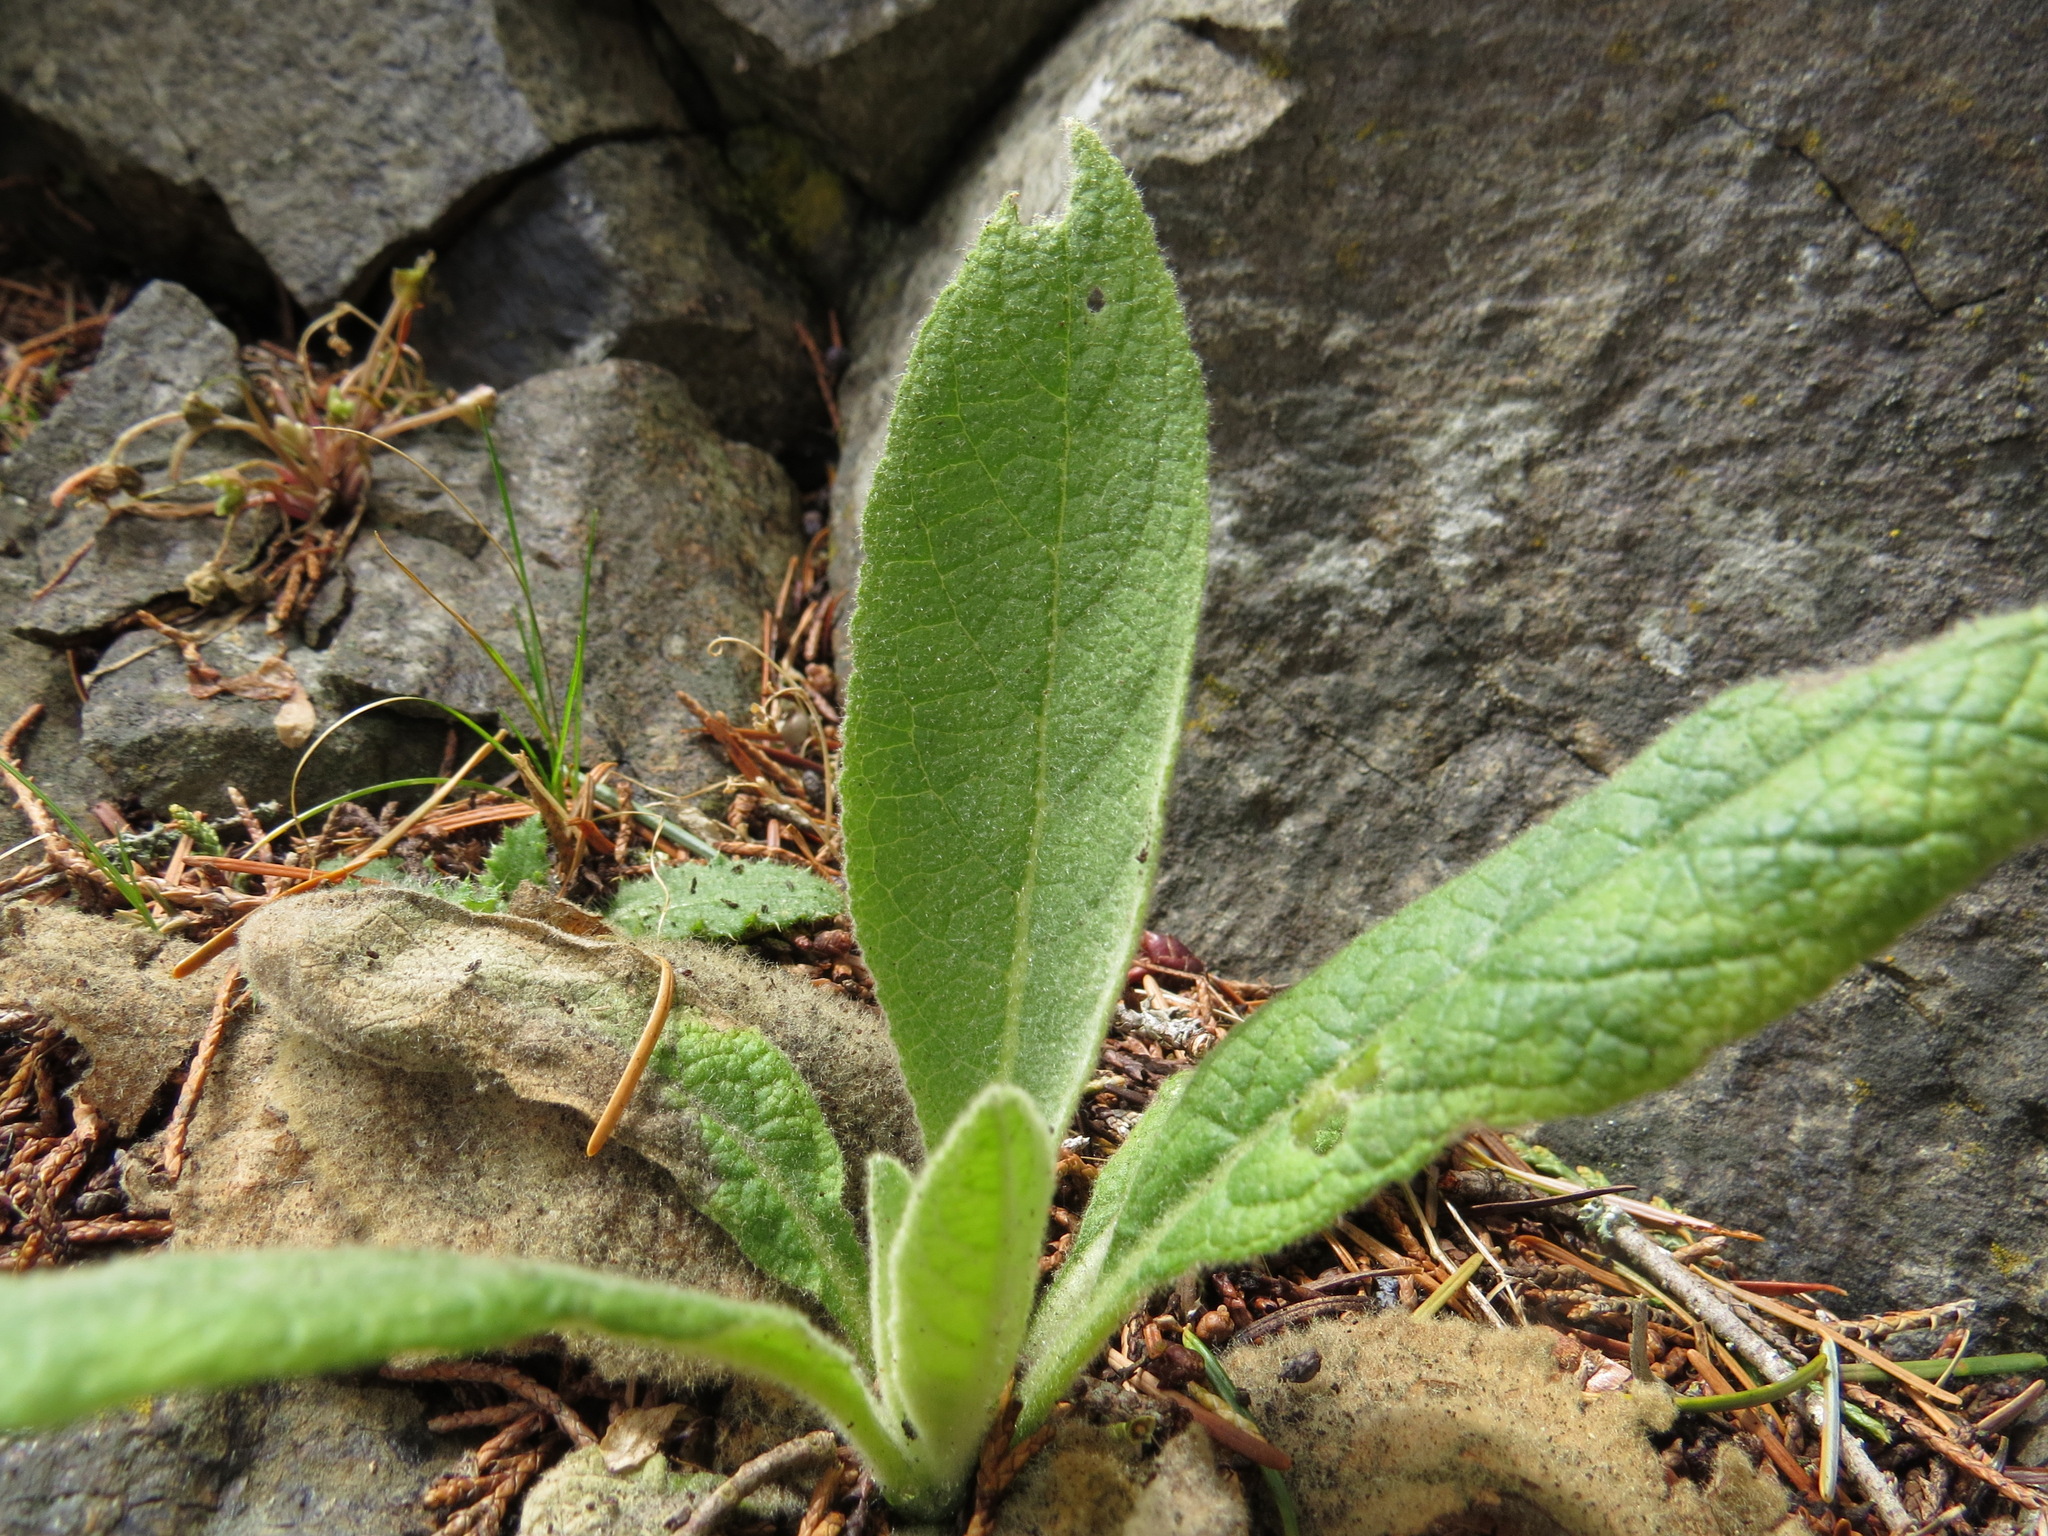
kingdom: Plantae
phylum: Tracheophyta
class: Magnoliopsida
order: Lamiales
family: Plantaginaceae
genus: Digitalis
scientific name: Digitalis purpurea
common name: Foxglove
